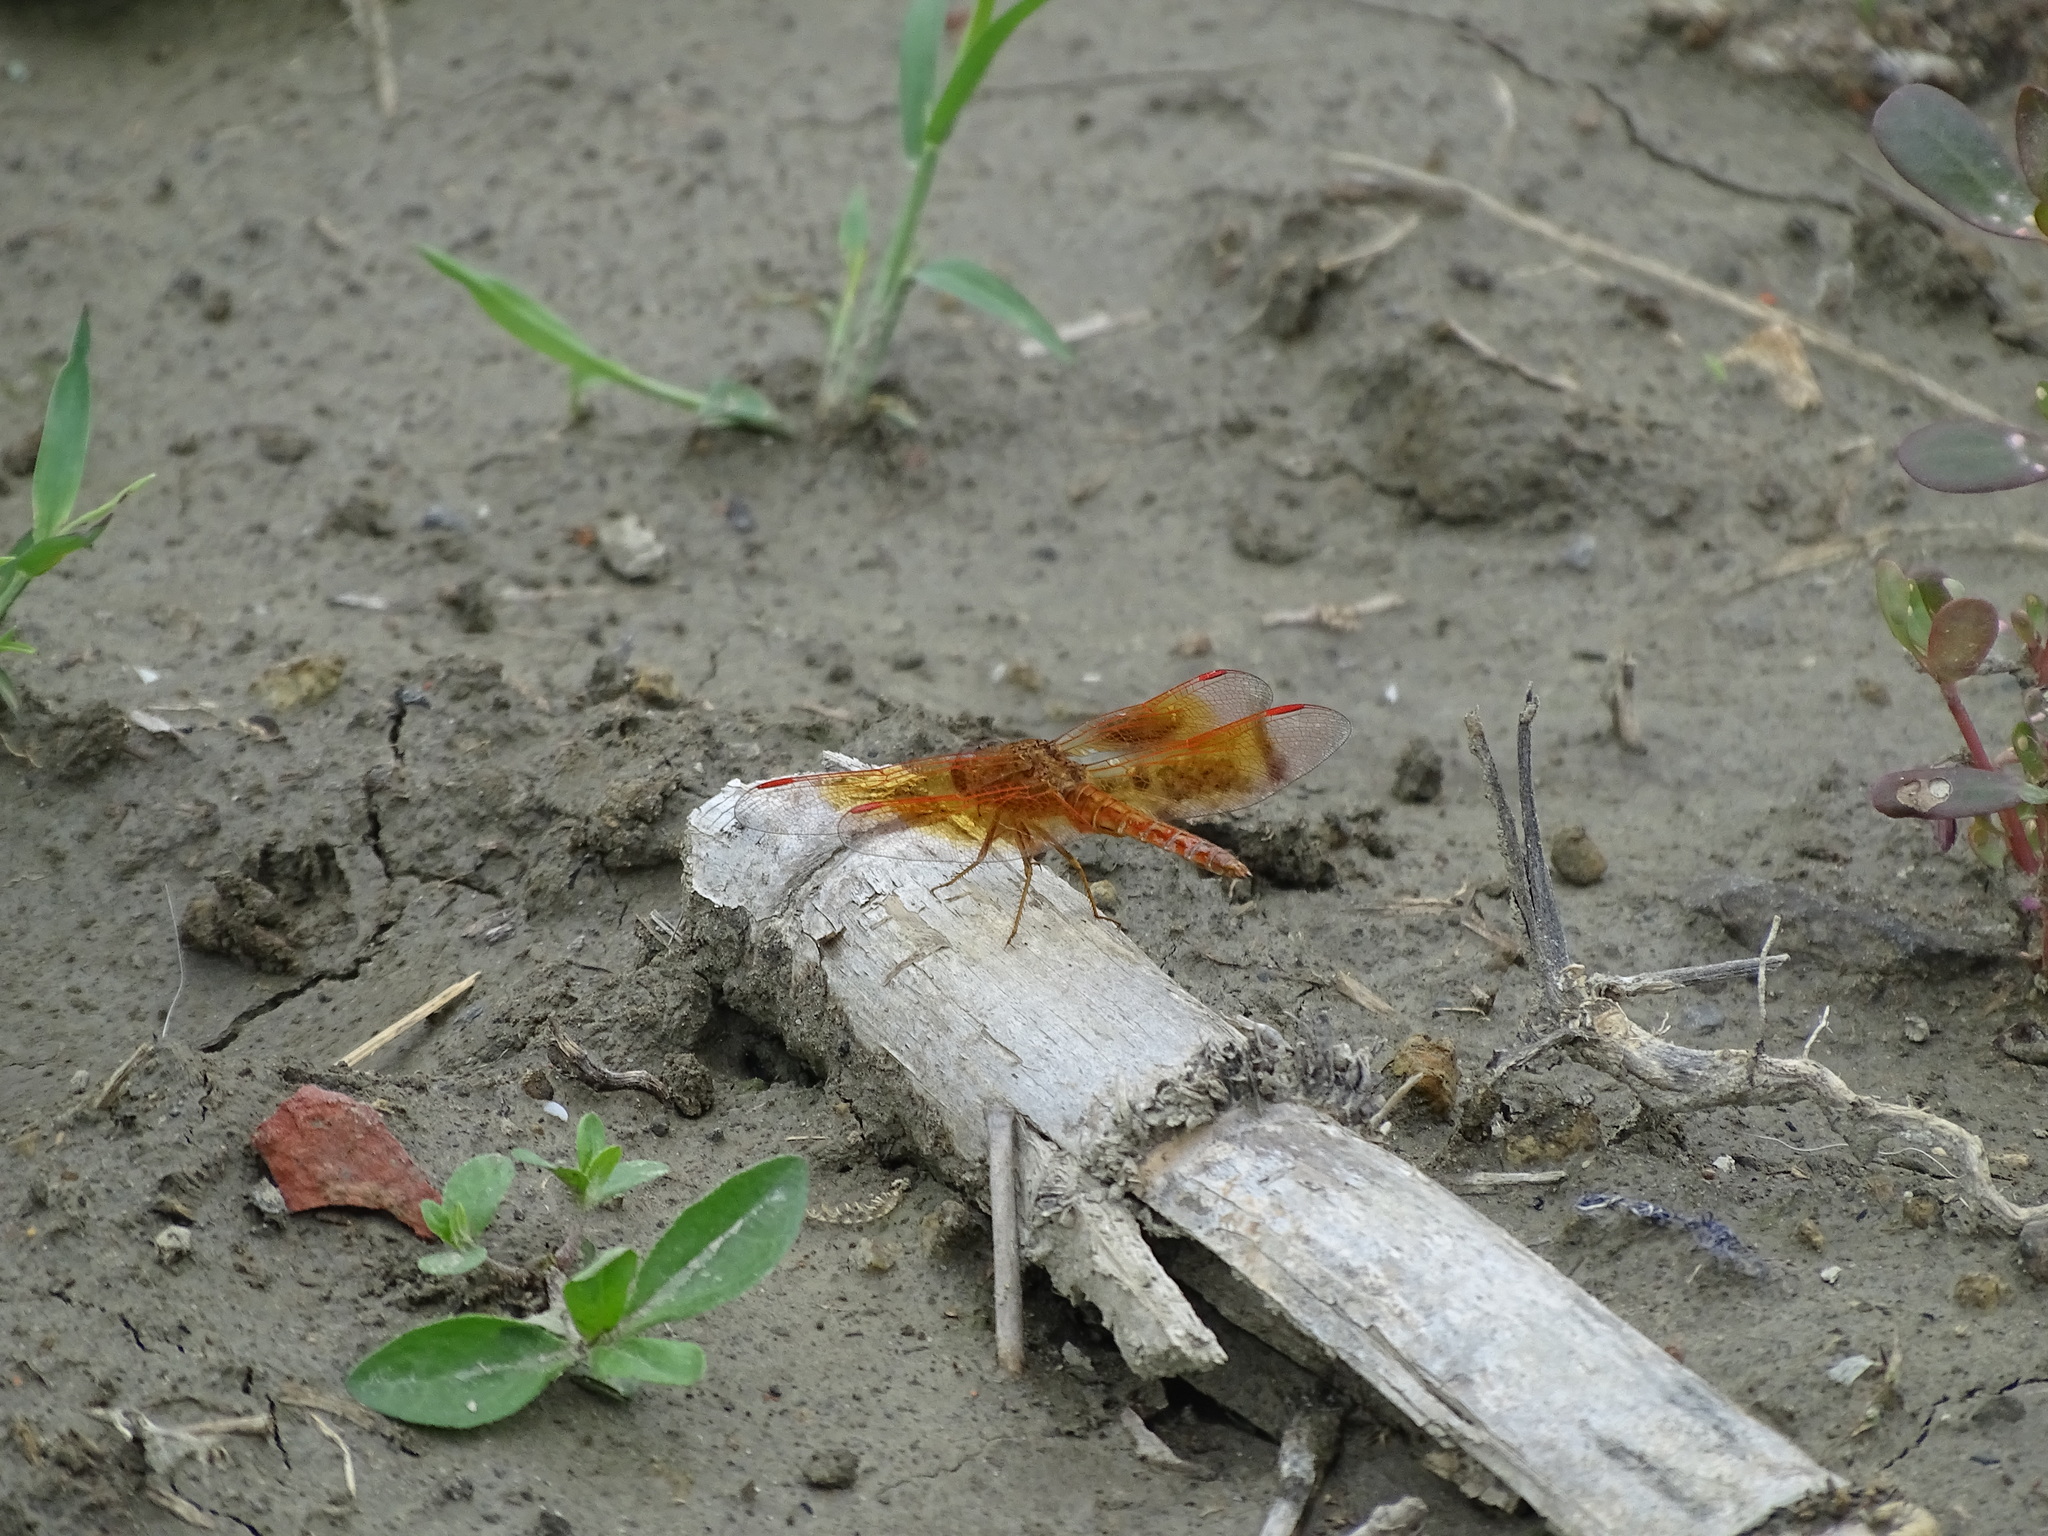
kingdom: Animalia
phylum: Arthropoda
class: Insecta
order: Odonata
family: Libellulidae
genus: Brachythemis
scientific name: Brachythemis contaminata
